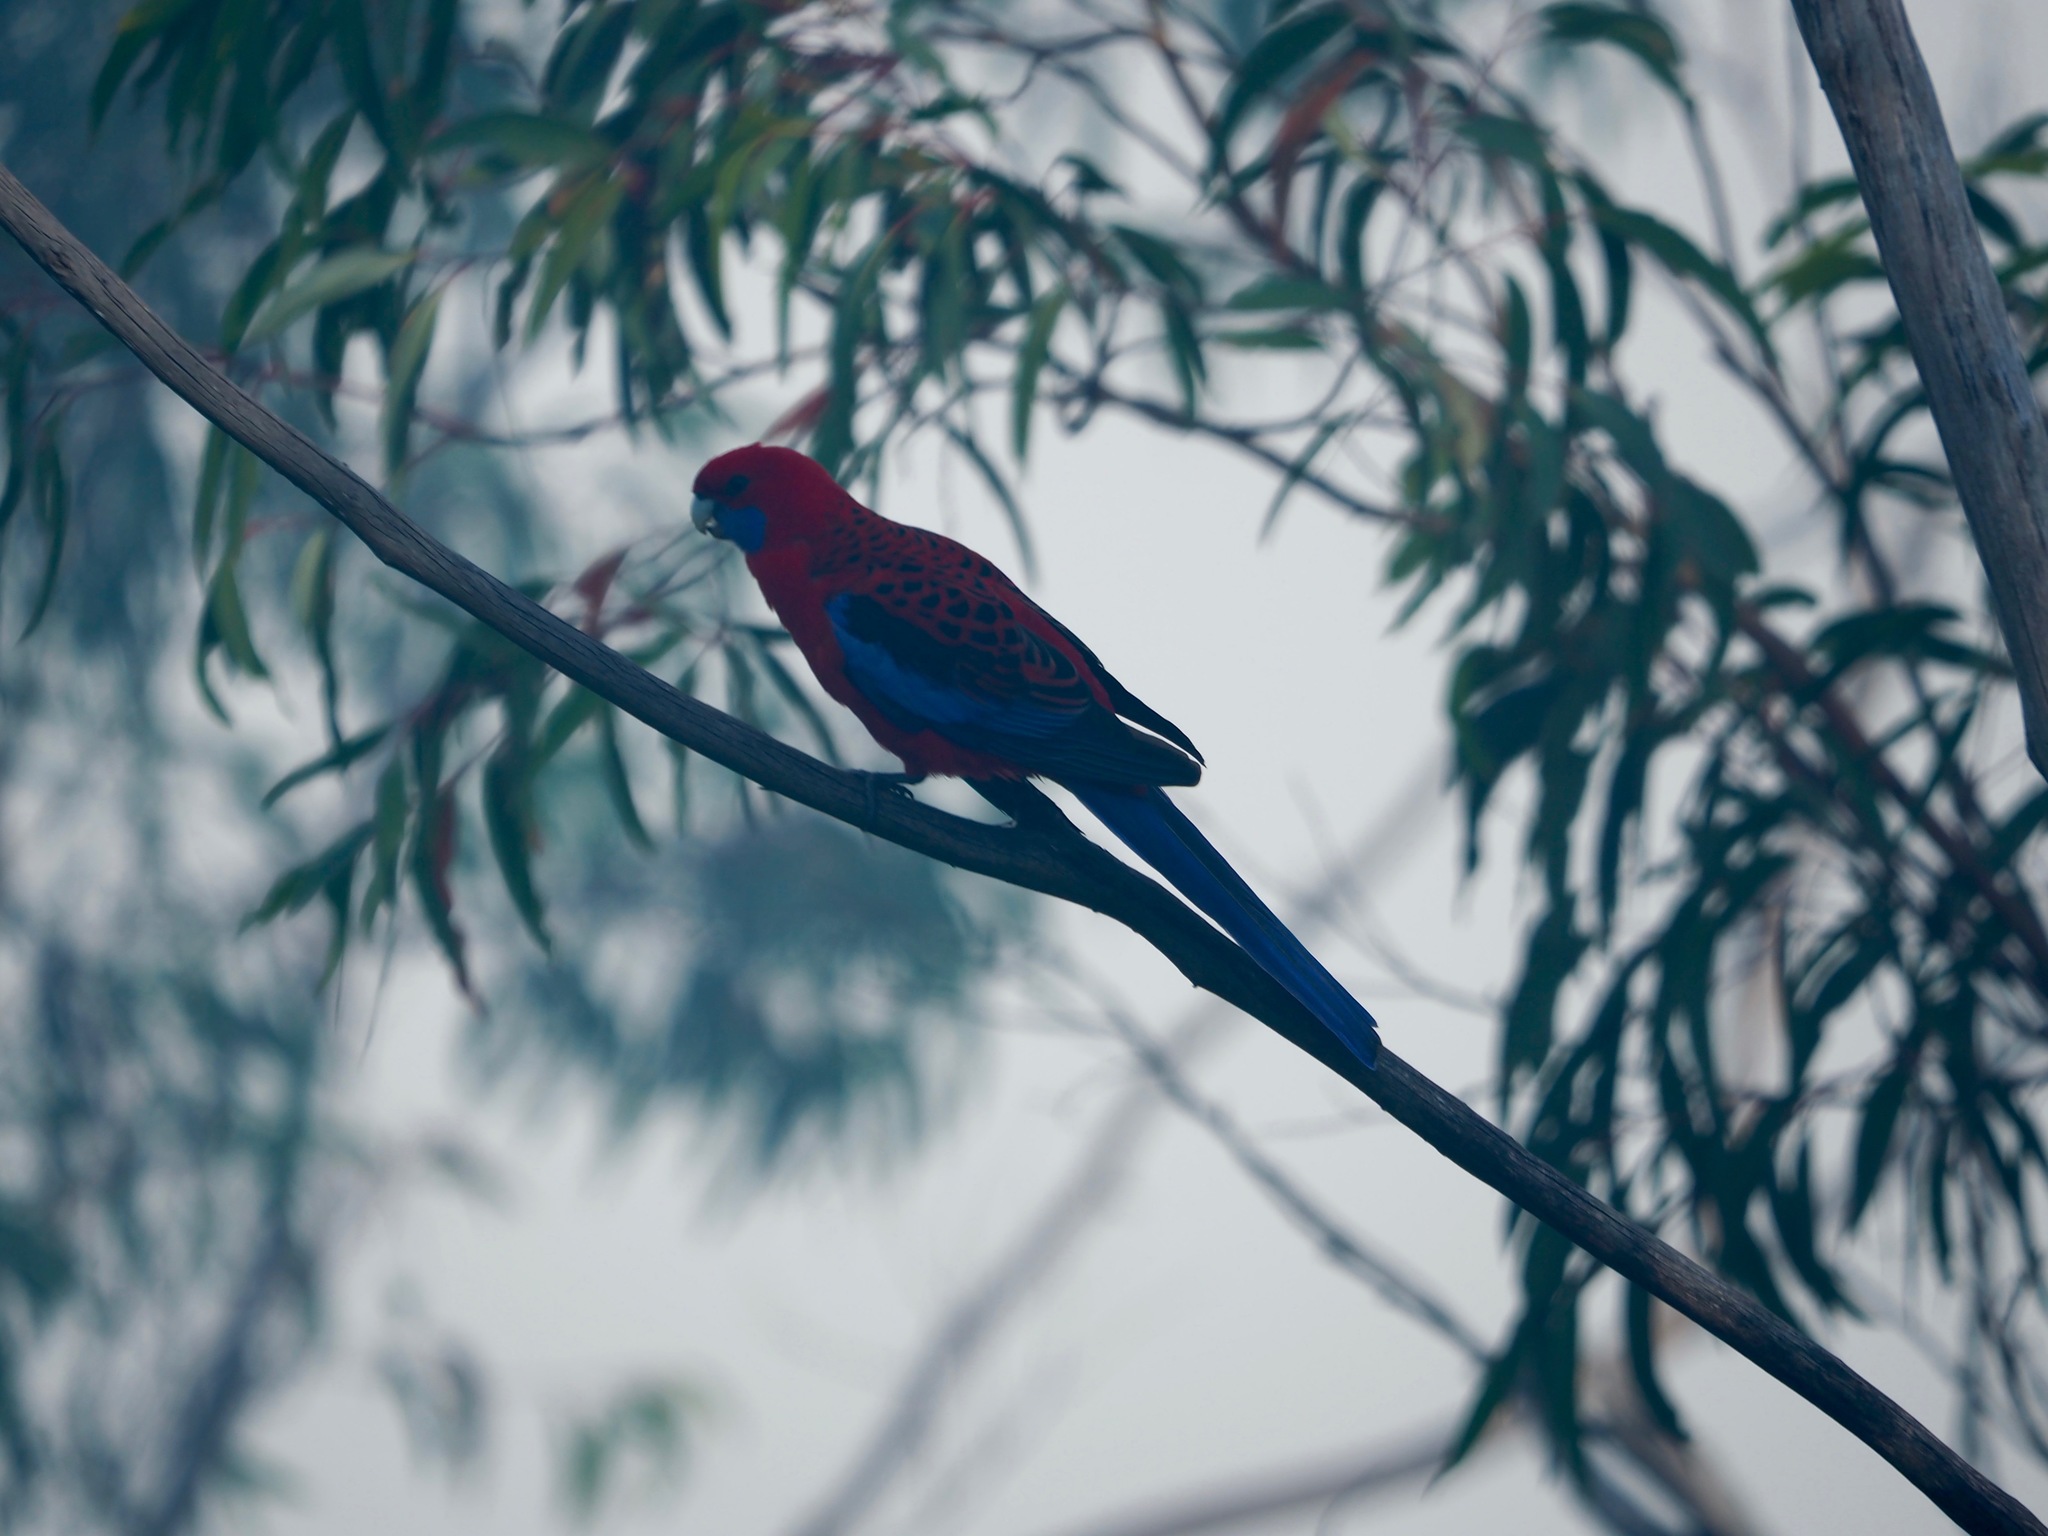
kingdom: Animalia
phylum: Chordata
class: Aves
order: Psittaciformes
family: Psittacidae
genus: Platycercus
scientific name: Platycercus elegans
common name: Crimson rosella
